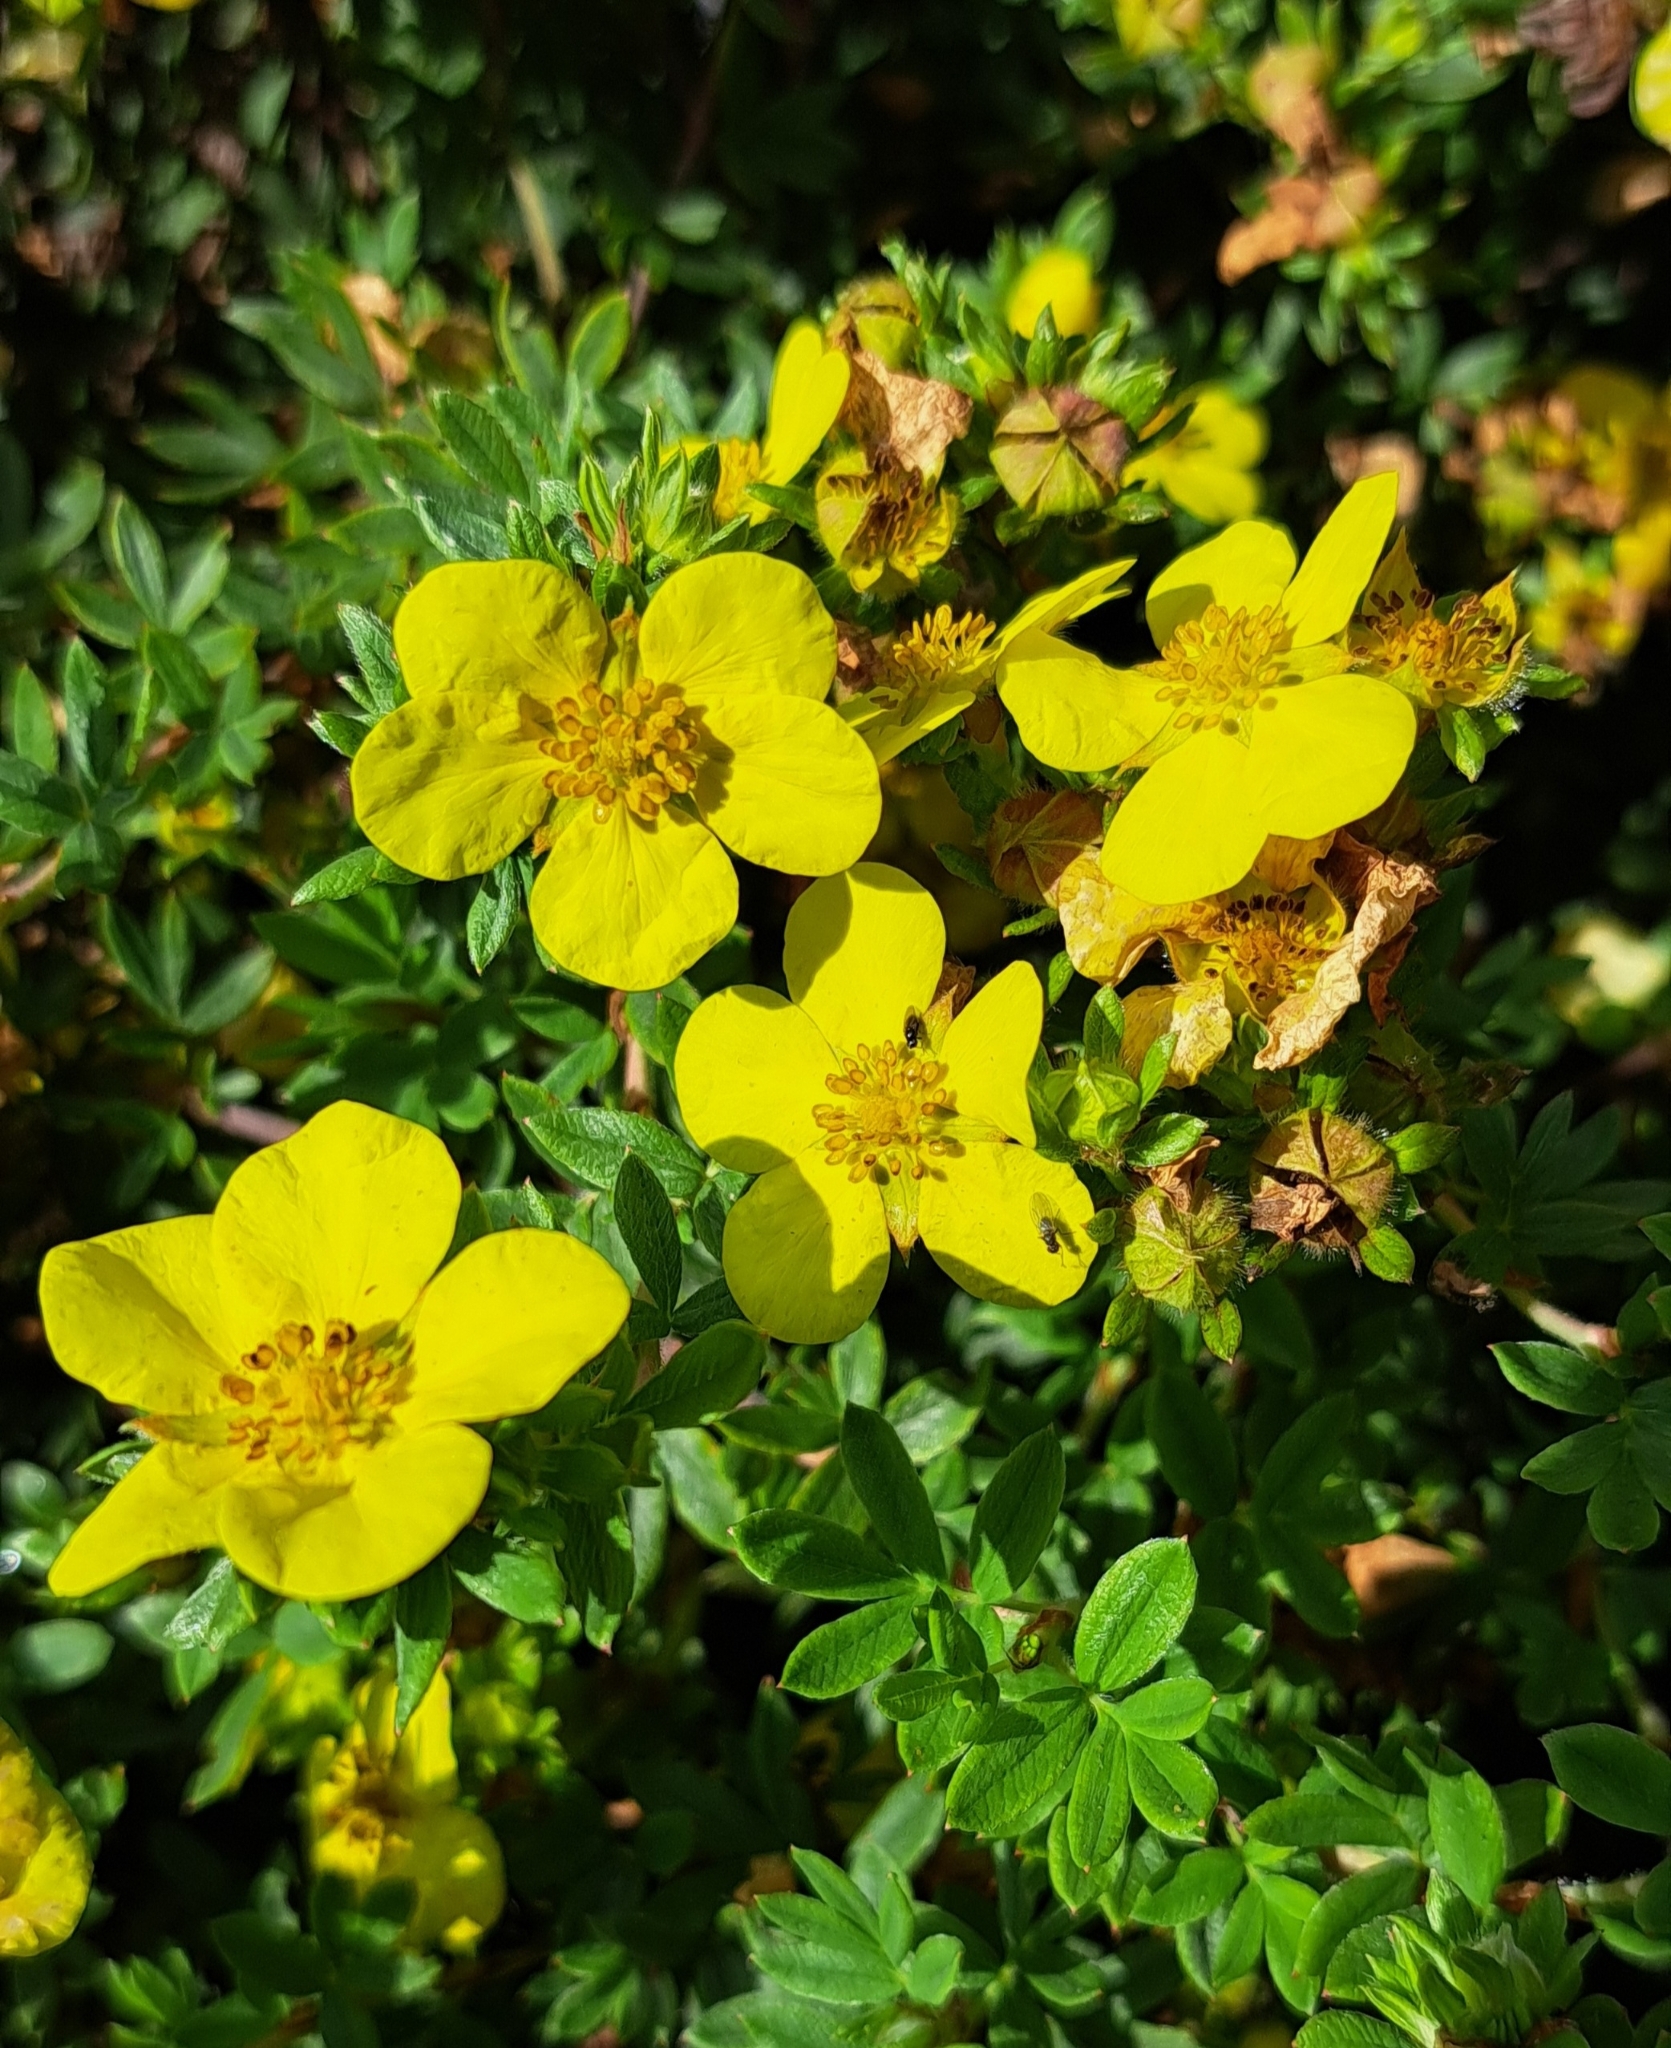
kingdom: Plantae
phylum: Tracheophyta
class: Magnoliopsida
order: Rosales
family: Rosaceae
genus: Dasiphora
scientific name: Dasiphora fruticosa
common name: Shrubby cinquefoil
